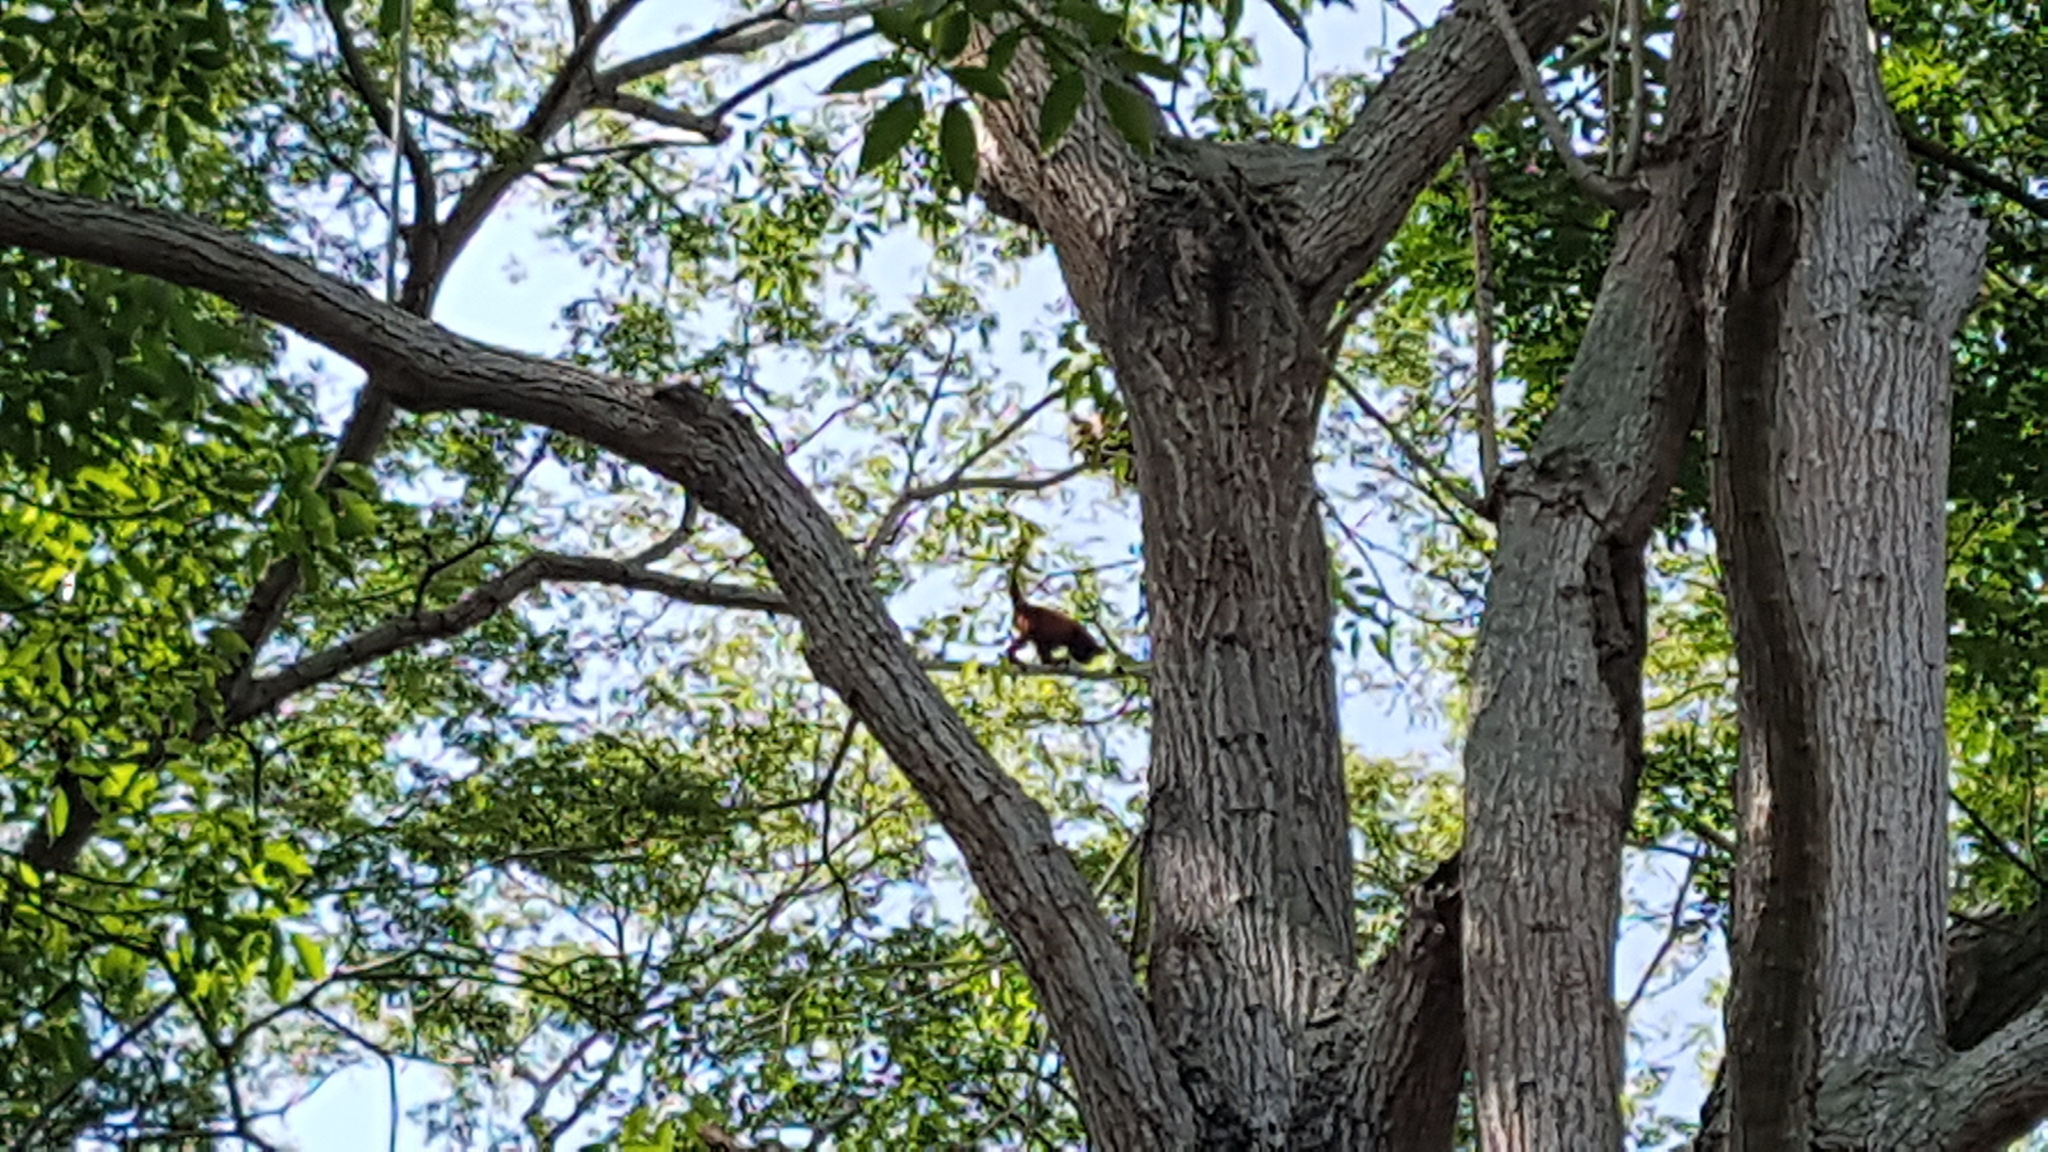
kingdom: Animalia
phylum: Chordata
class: Mammalia
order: Primates
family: Atelidae
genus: Alouatta
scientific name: Alouatta
